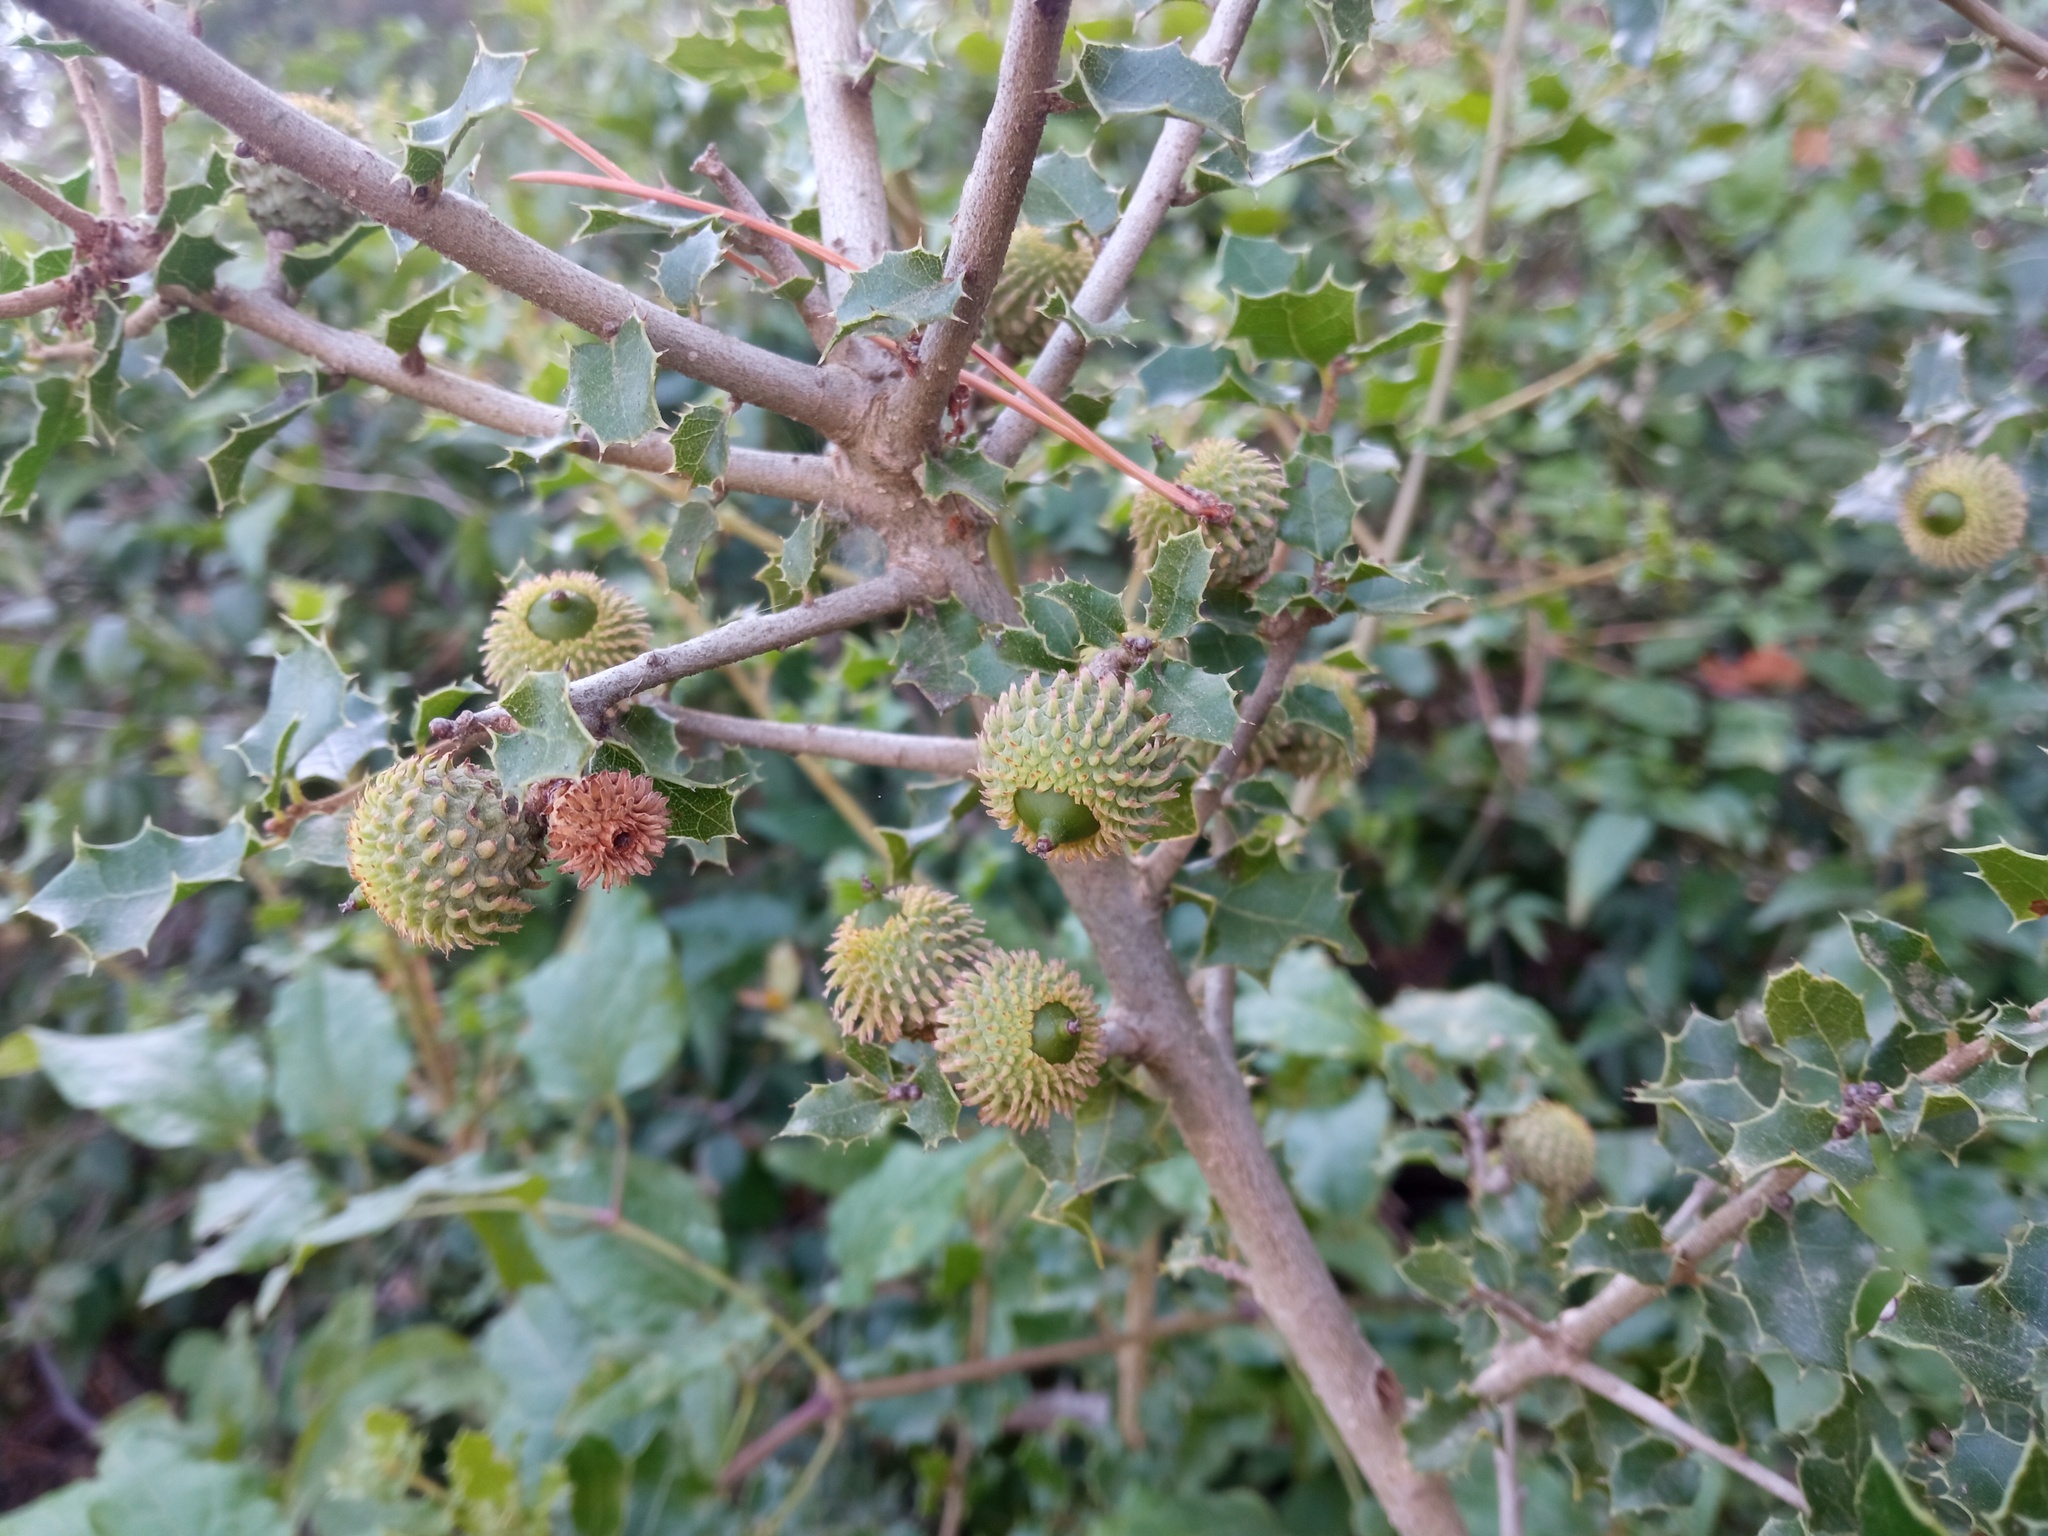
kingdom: Plantae
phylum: Tracheophyta
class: Magnoliopsida
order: Fagales
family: Fagaceae
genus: Quercus
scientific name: Quercus coccifera
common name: Kermes oak
